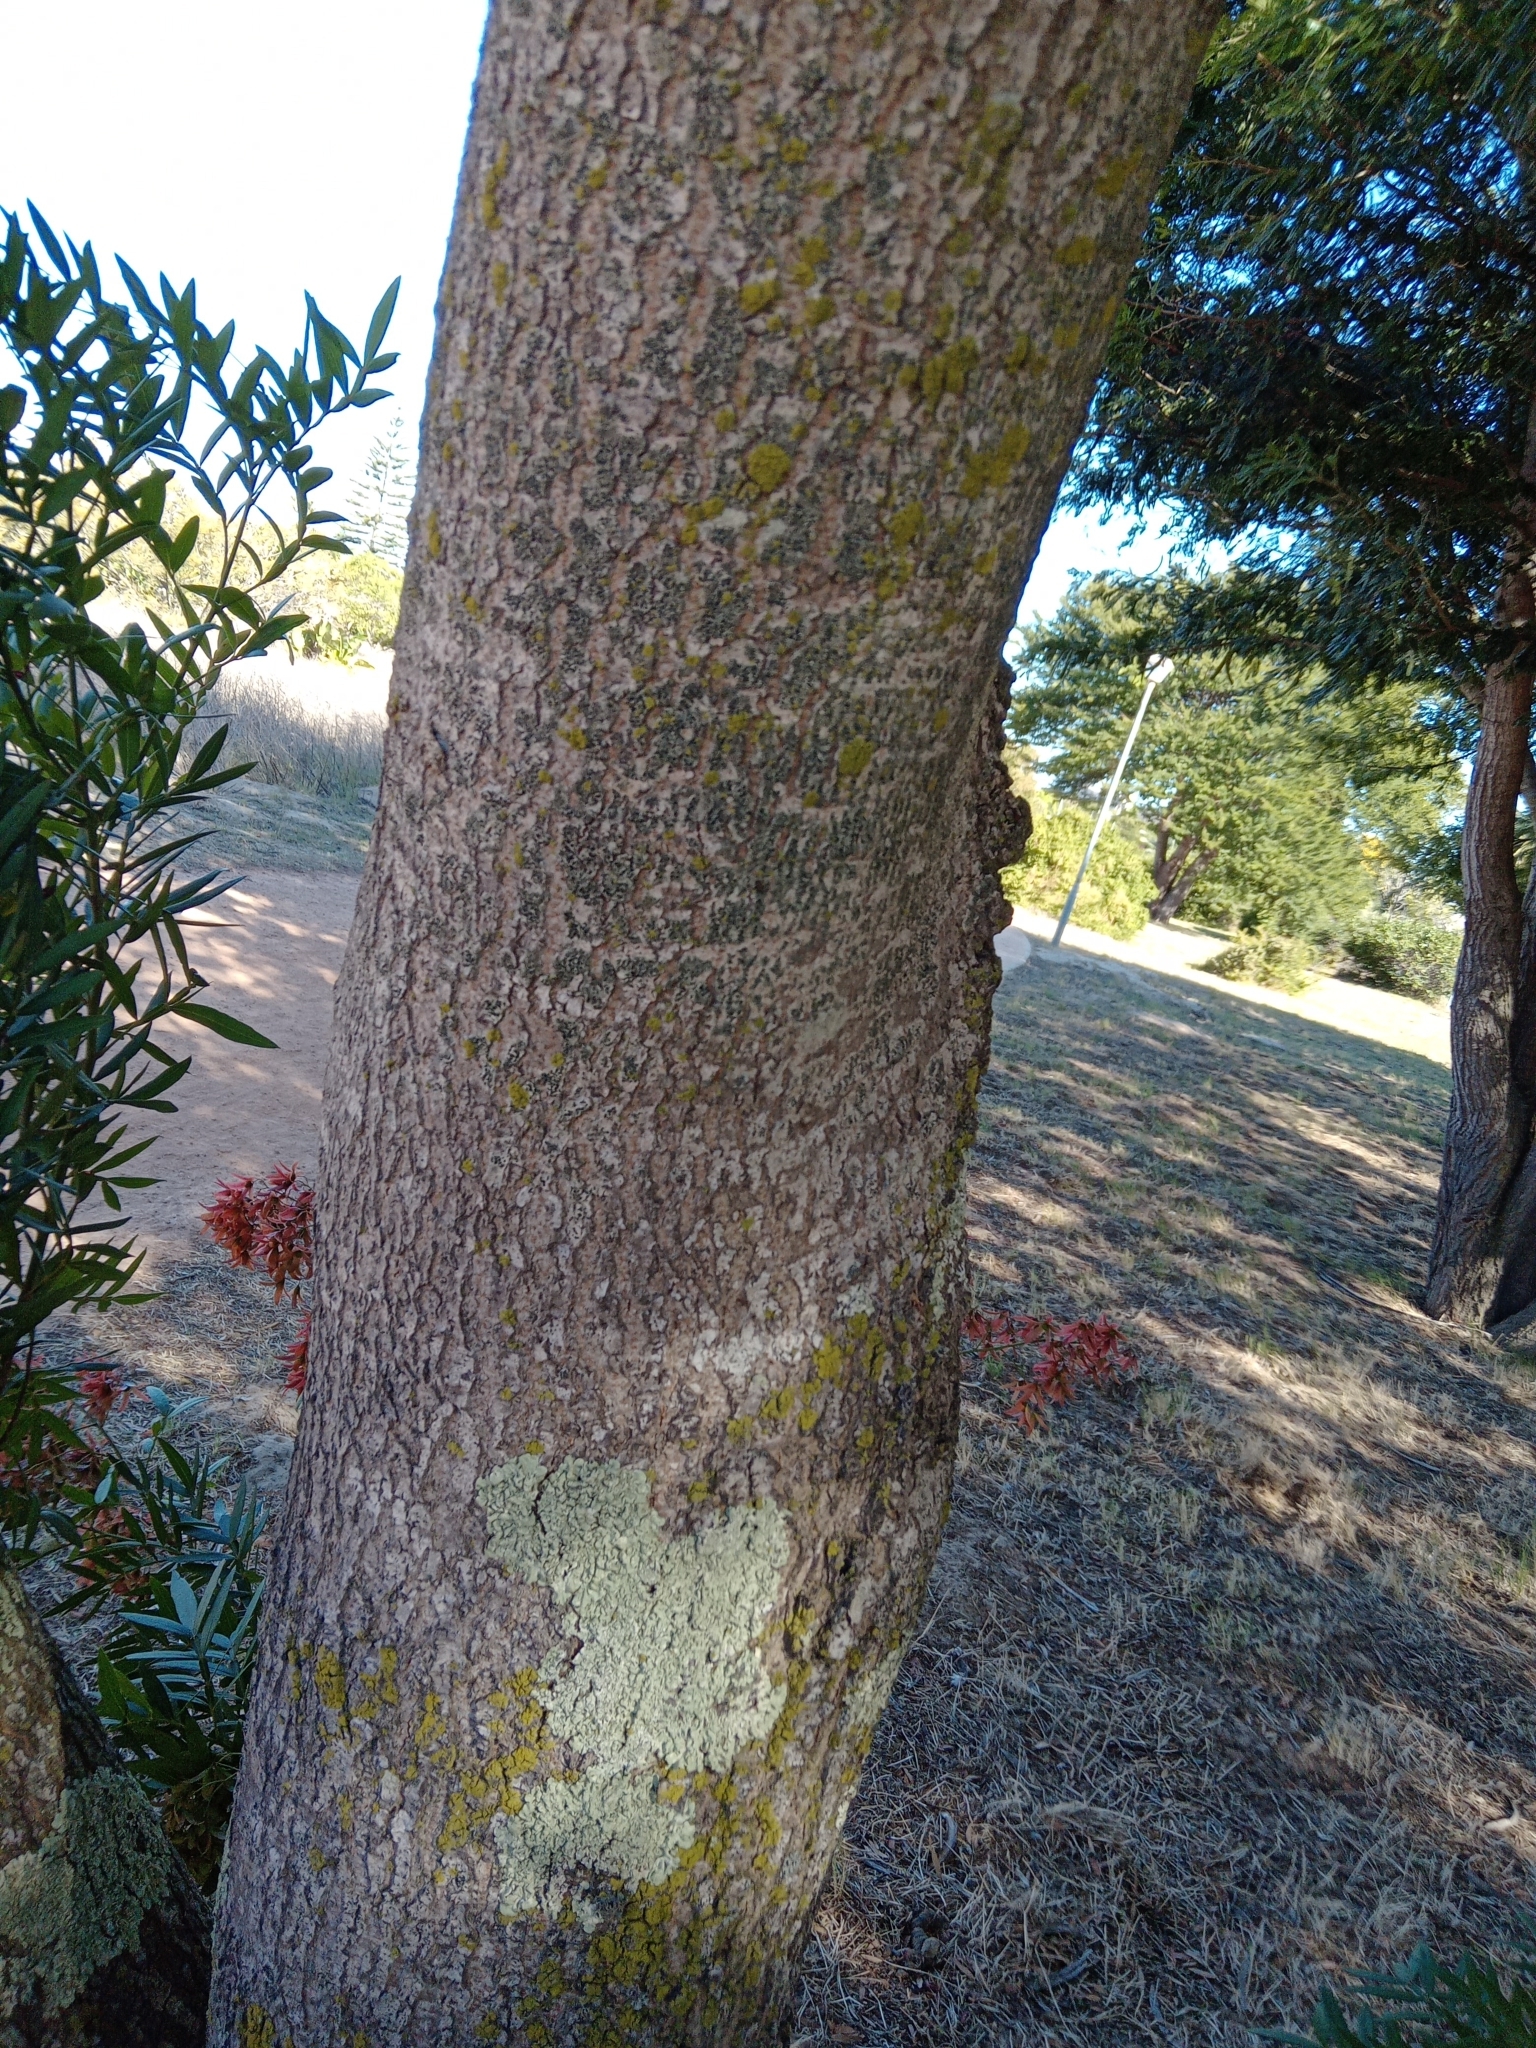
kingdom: Plantae
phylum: Tracheophyta
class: Magnoliopsida
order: Sapindales
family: Anacardiaceae
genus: Loxostylis
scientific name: Loxostylis alata
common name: Wild peppertree
